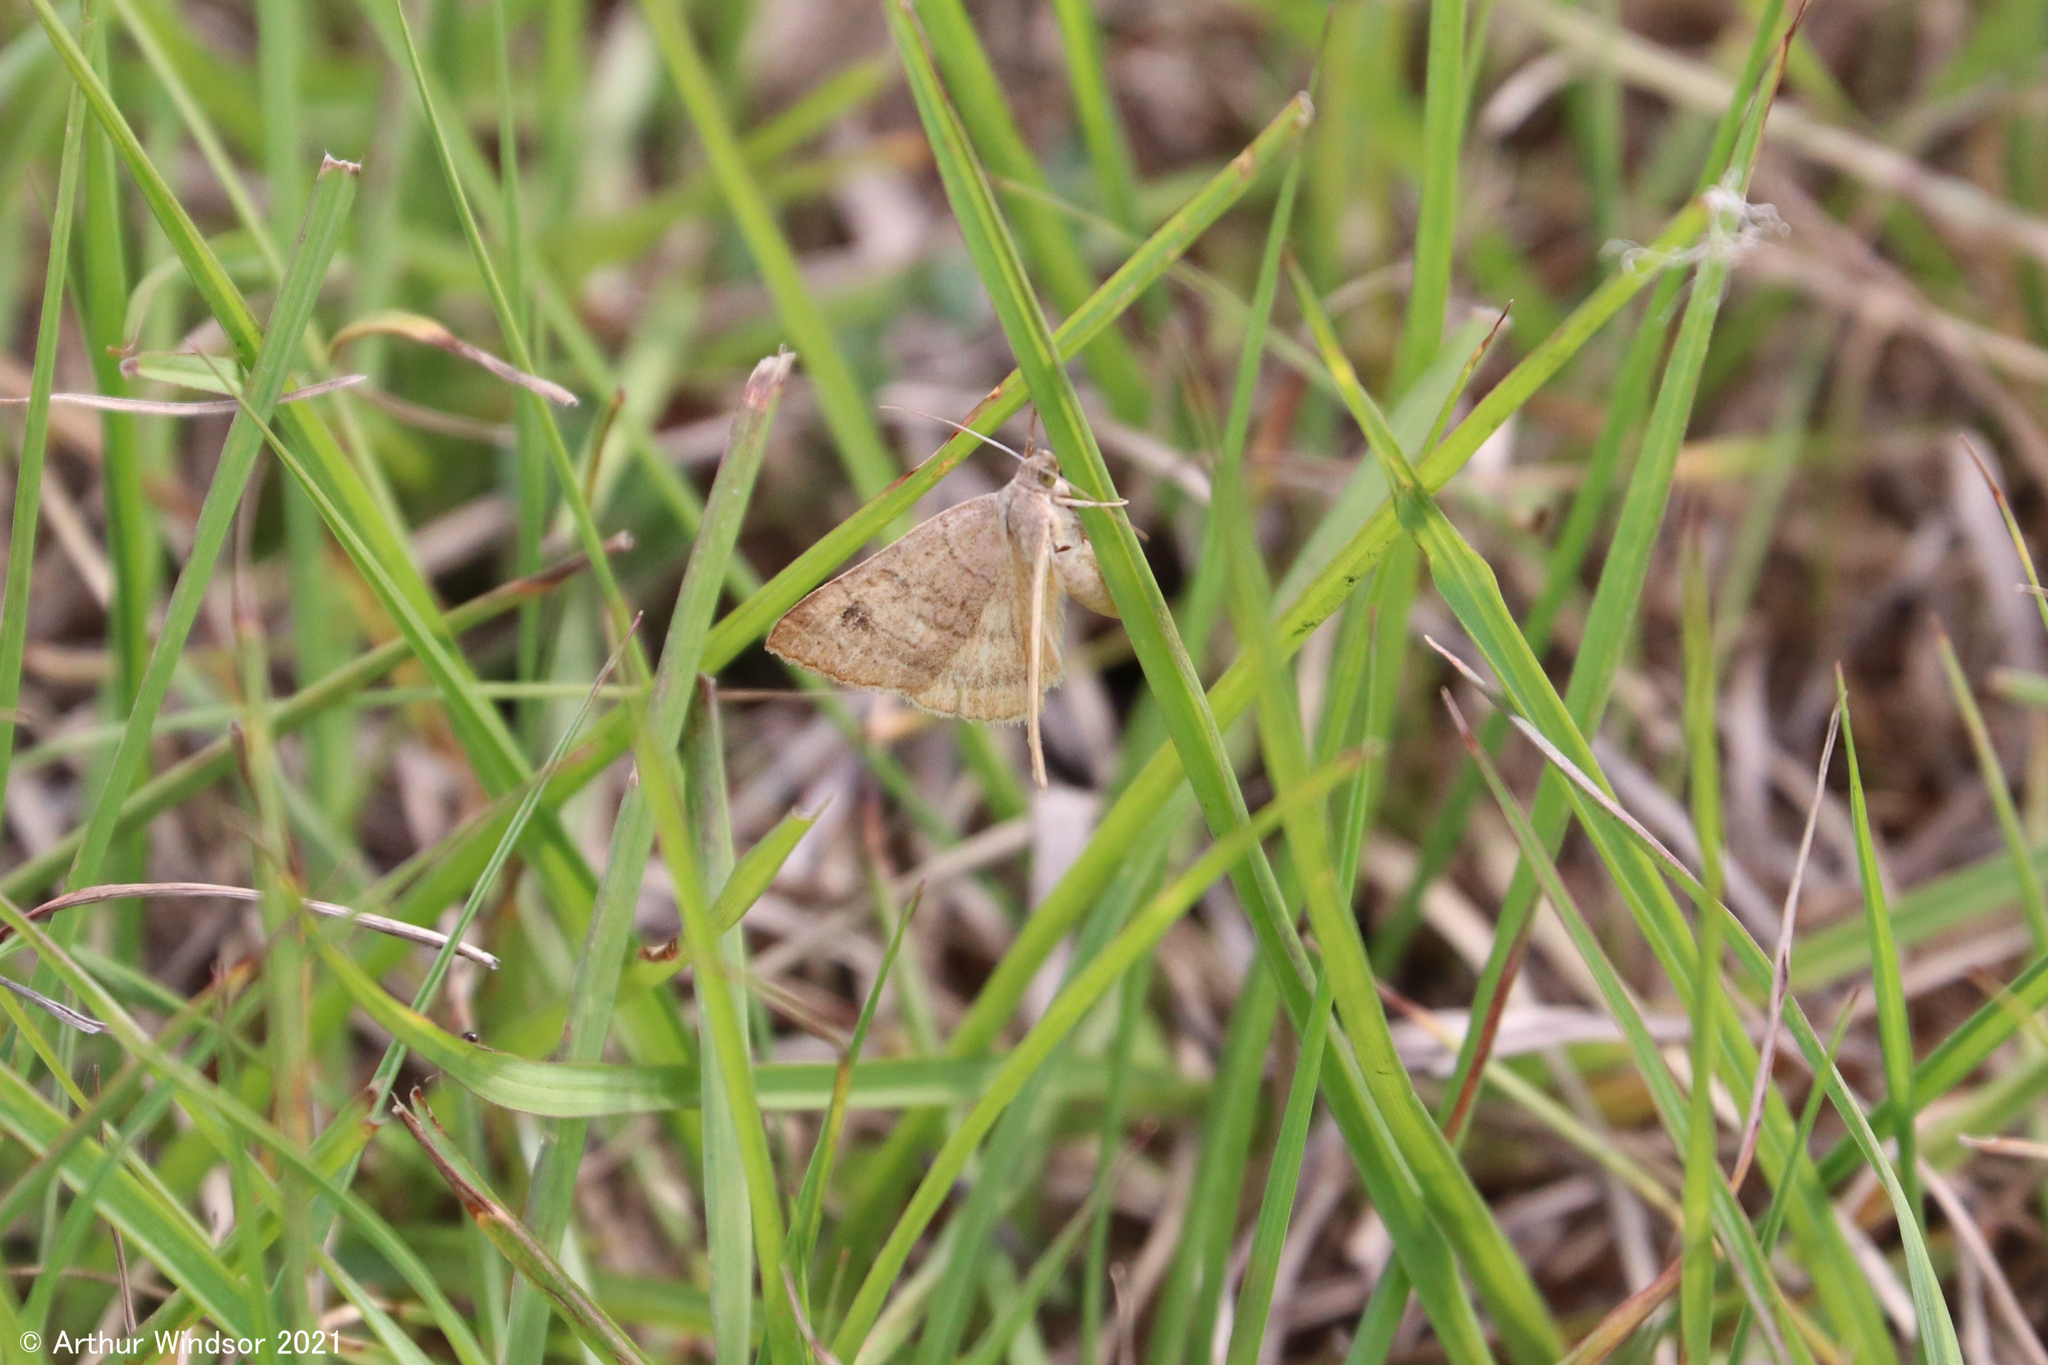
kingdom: Animalia
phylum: Arthropoda
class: Insecta
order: Lepidoptera
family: Erebidae
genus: Caenurgia
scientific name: Caenurgia chloropha
